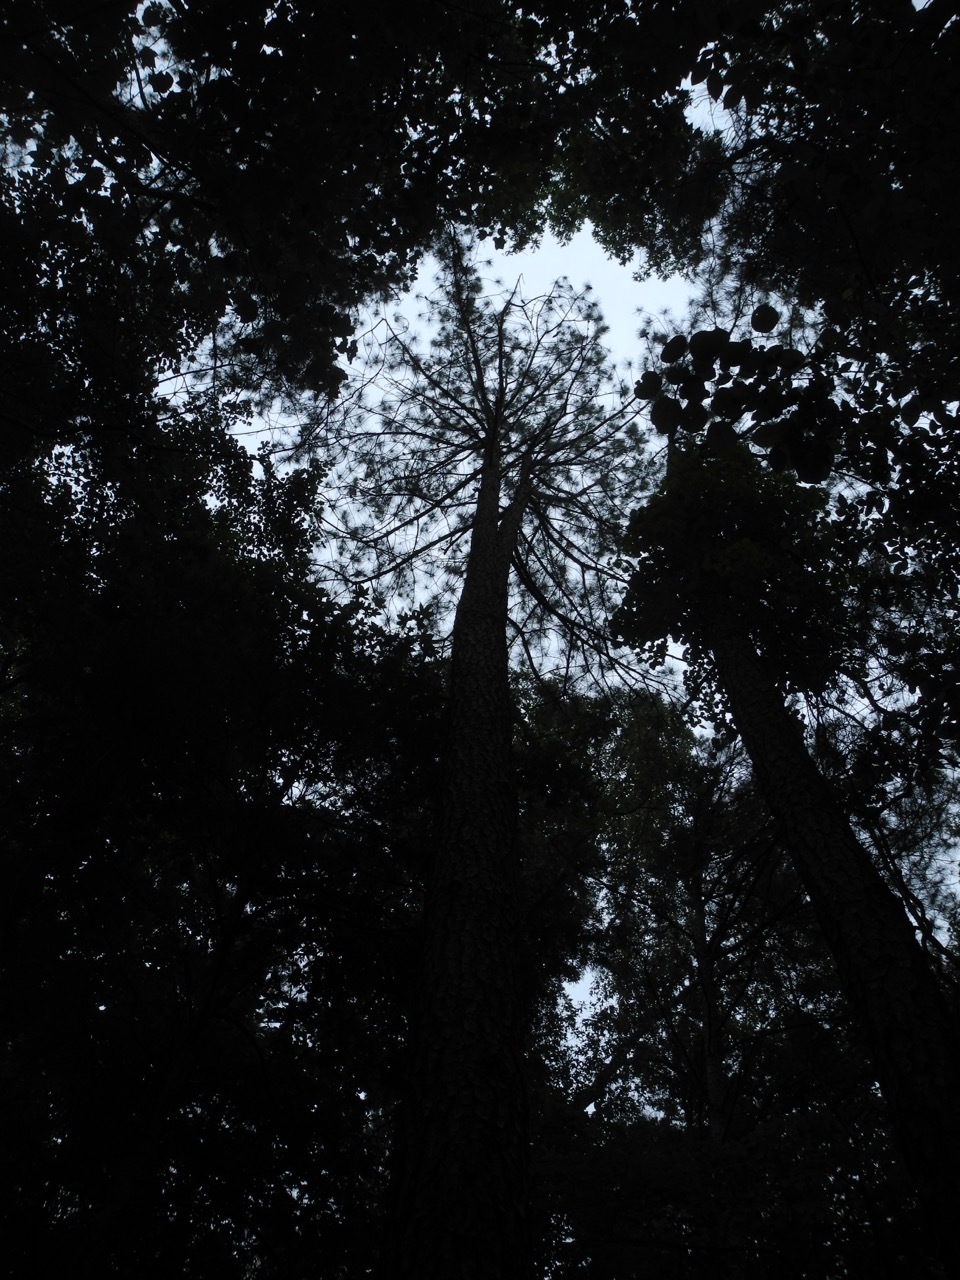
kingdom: Plantae
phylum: Tracheophyta
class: Pinopsida
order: Pinales
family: Pinaceae
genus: Pinus
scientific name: Pinus taeda
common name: Loblolly pine
